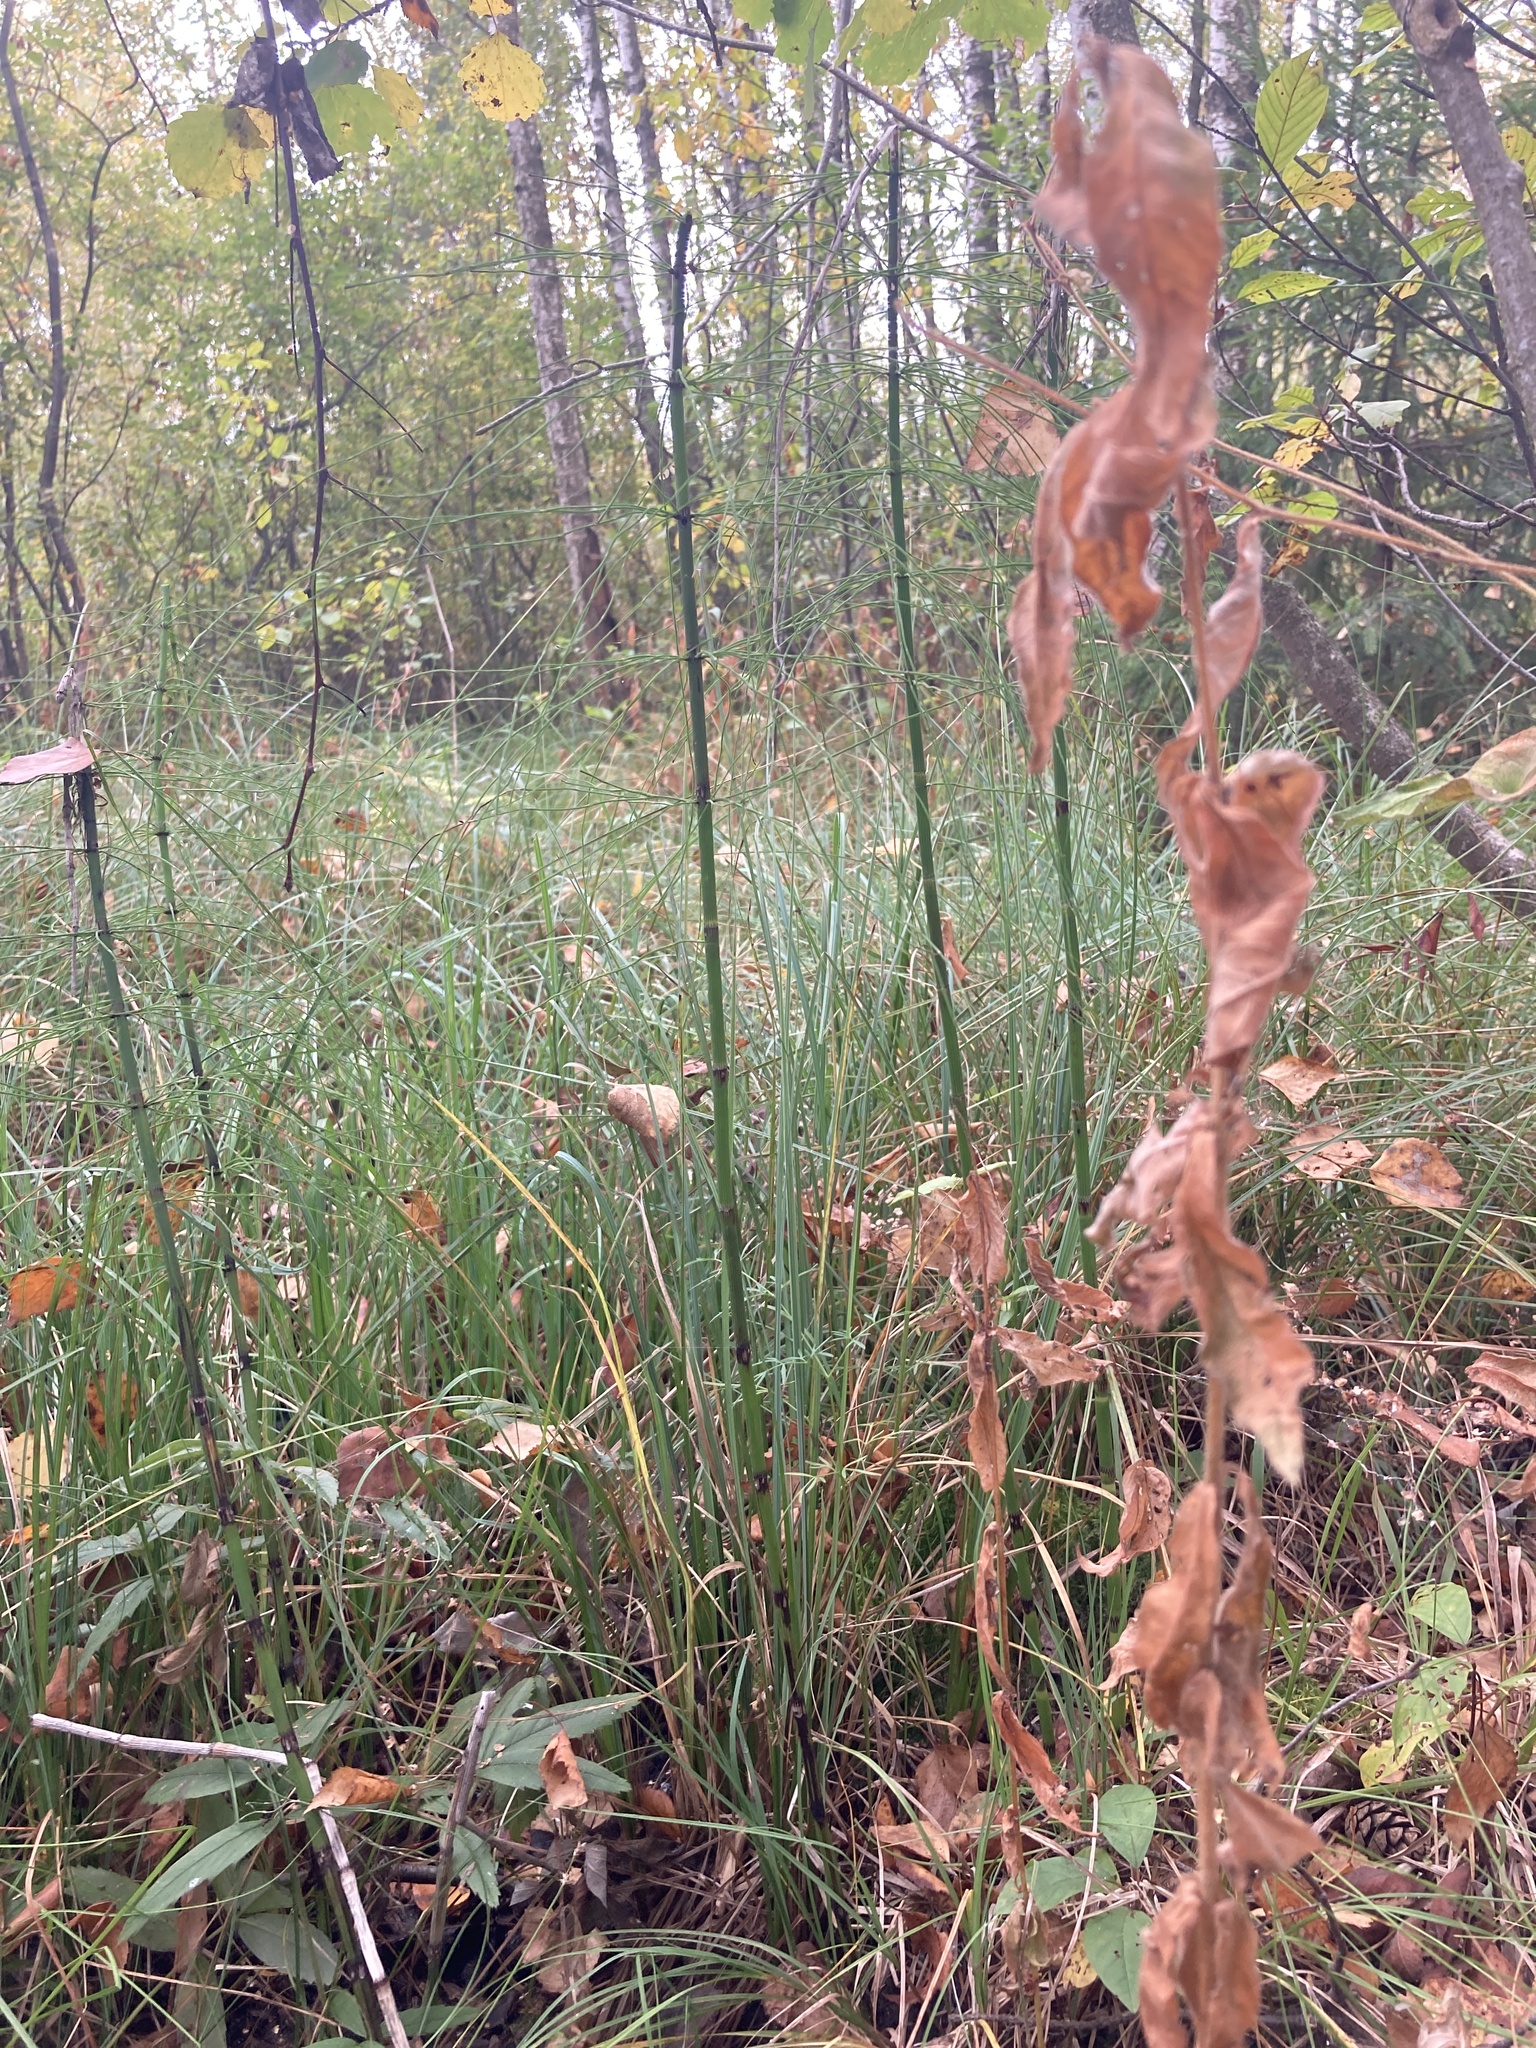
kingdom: Plantae
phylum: Tracheophyta
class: Polypodiopsida
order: Equisetales
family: Equisetaceae
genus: Equisetum
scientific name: Equisetum fluviatile
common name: Water horsetail
